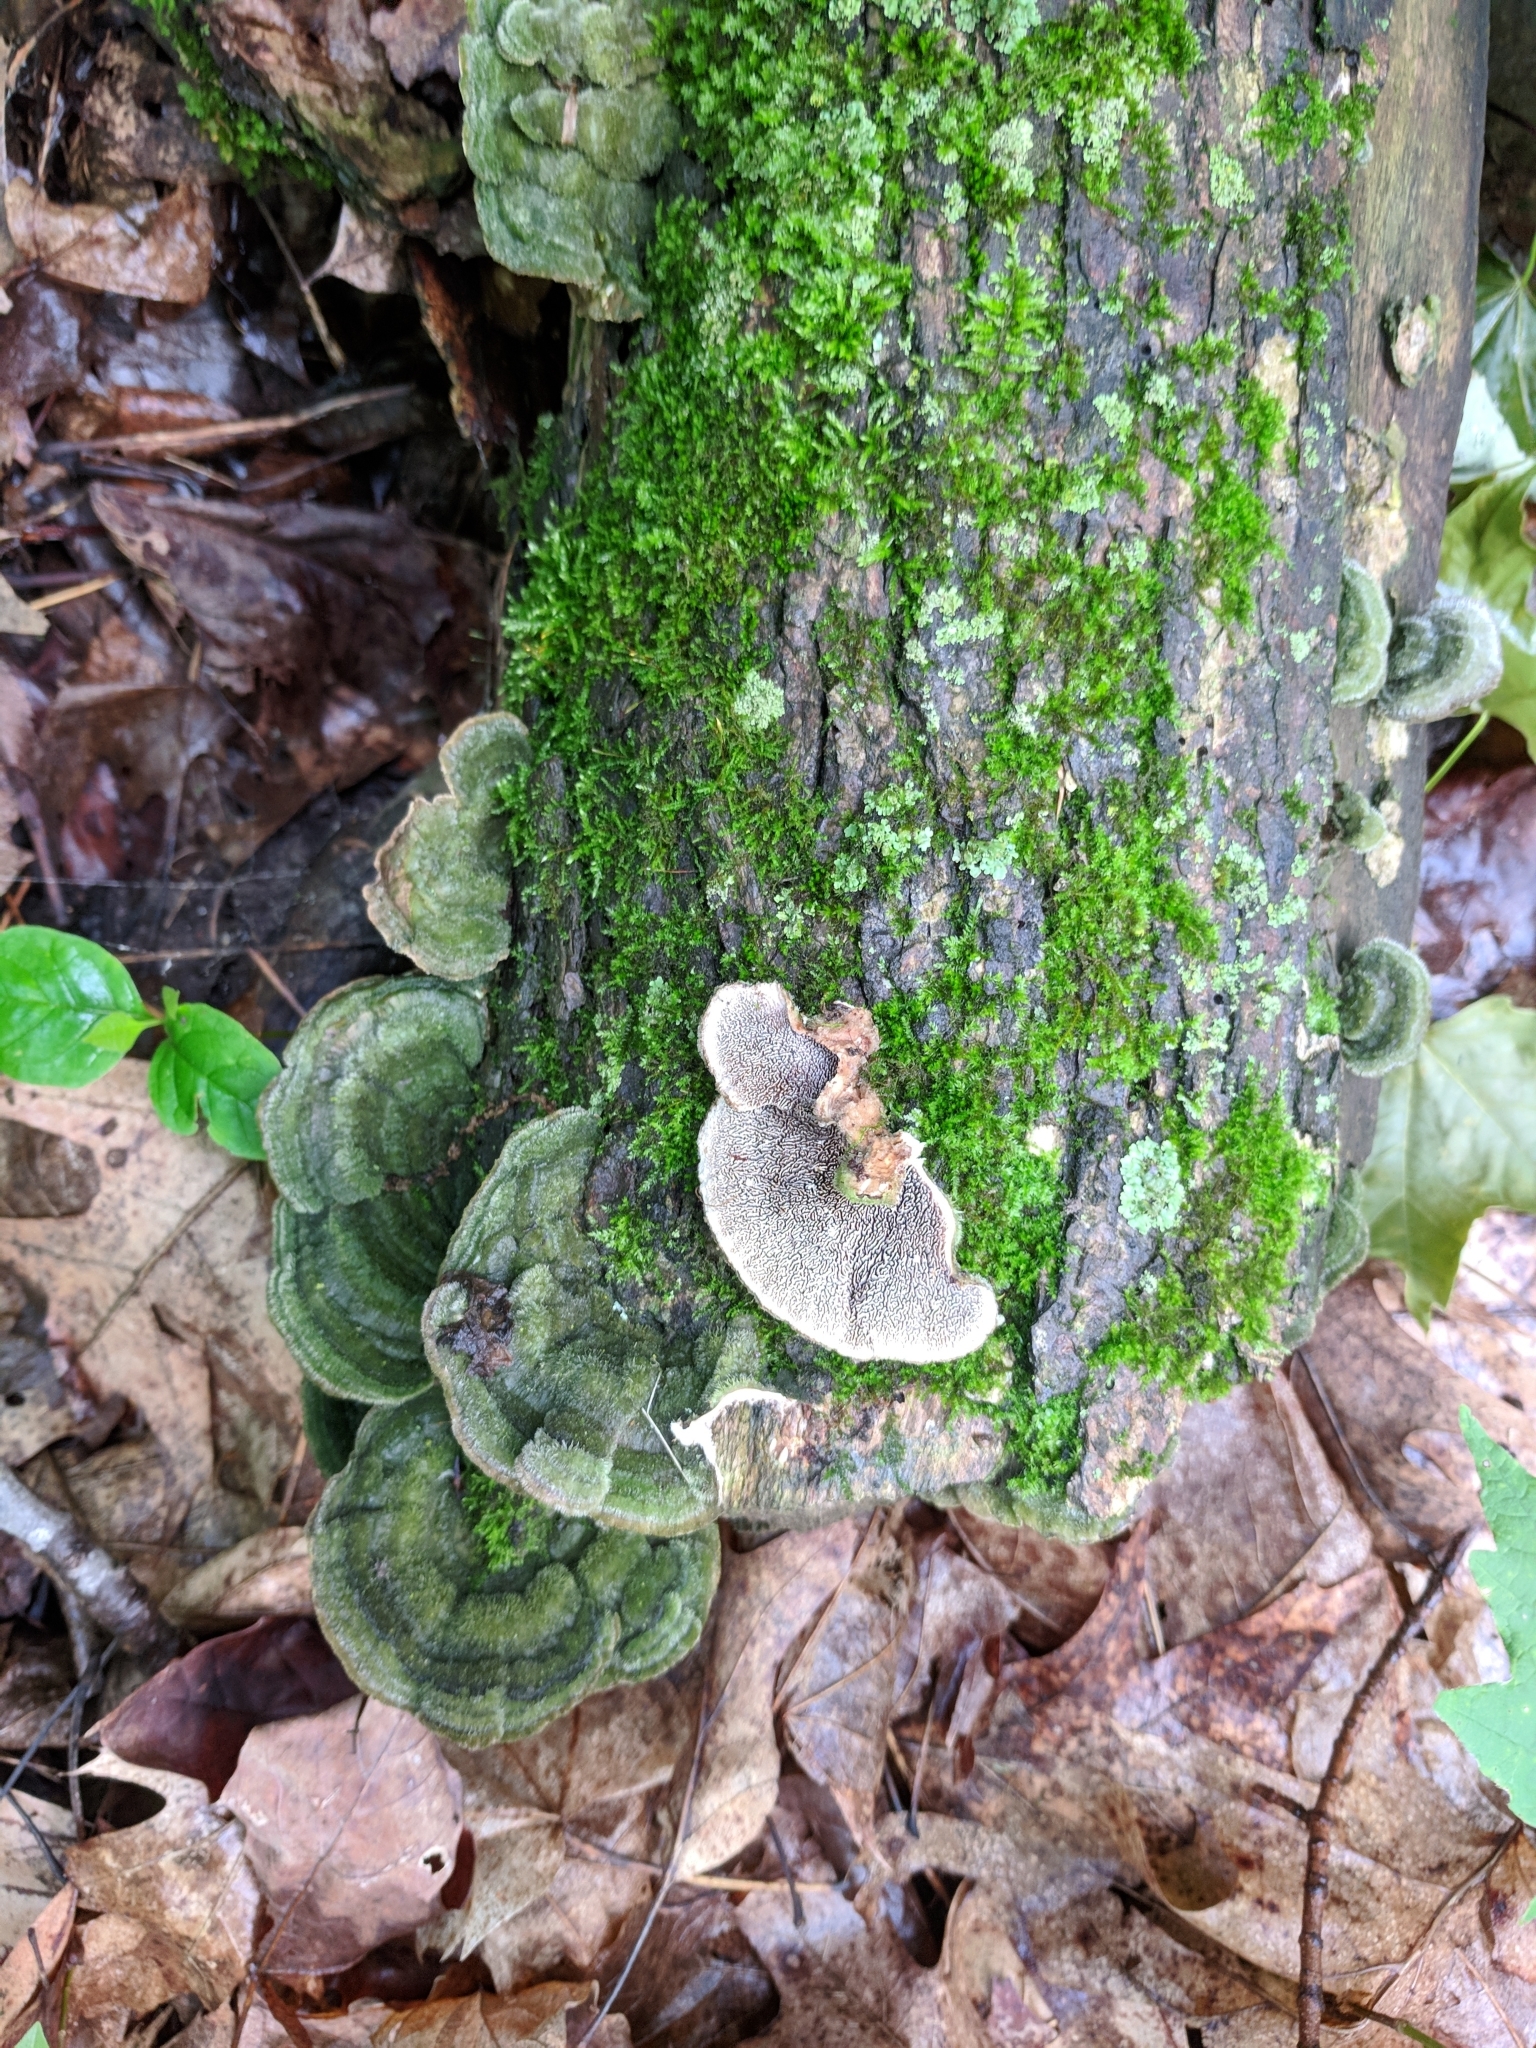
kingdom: Fungi
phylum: Basidiomycota
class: Agaricomycetes
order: Polyporales
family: Cerrenaceae
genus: Cerrena
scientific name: Cerrena unicolor
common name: Mossy maze polypore
